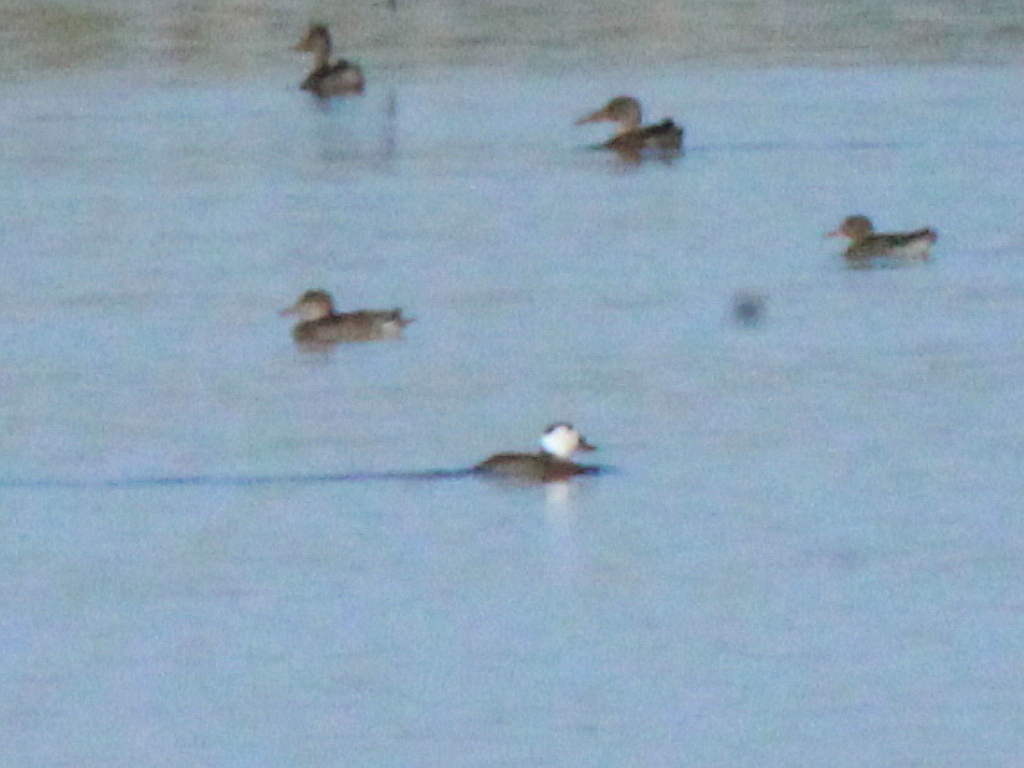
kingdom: Animalia
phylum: Chordata
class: Aves
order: Anseriformes
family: Anatidae
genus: Oxyura
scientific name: Oxyura leucocephala
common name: White-headed duck
